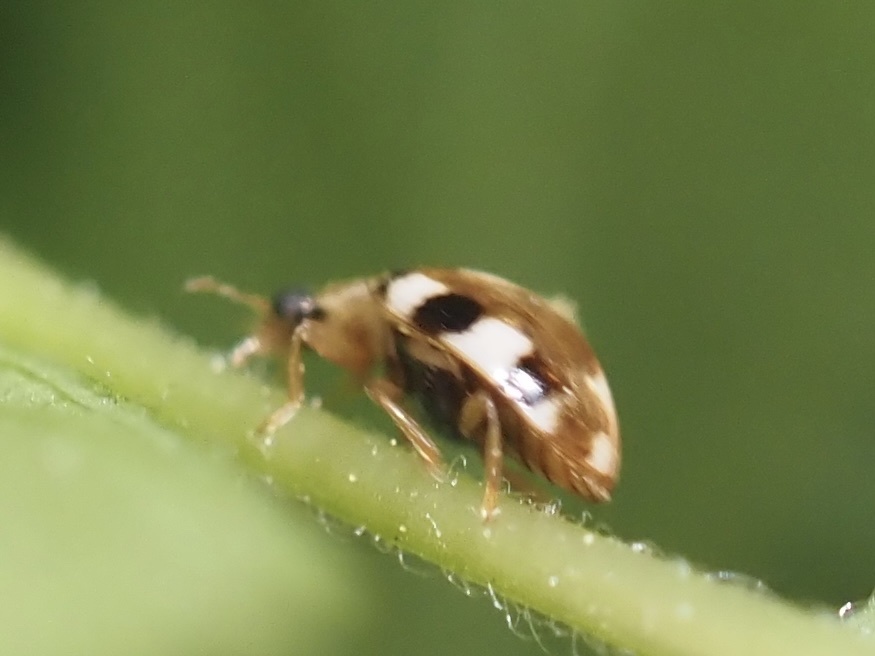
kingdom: Fungi
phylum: Ascomycota
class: Laboulbeniomycetes
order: Laboulbeniales
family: Laboulbeniaceae
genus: Hesperomyces
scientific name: Hesperomyces
